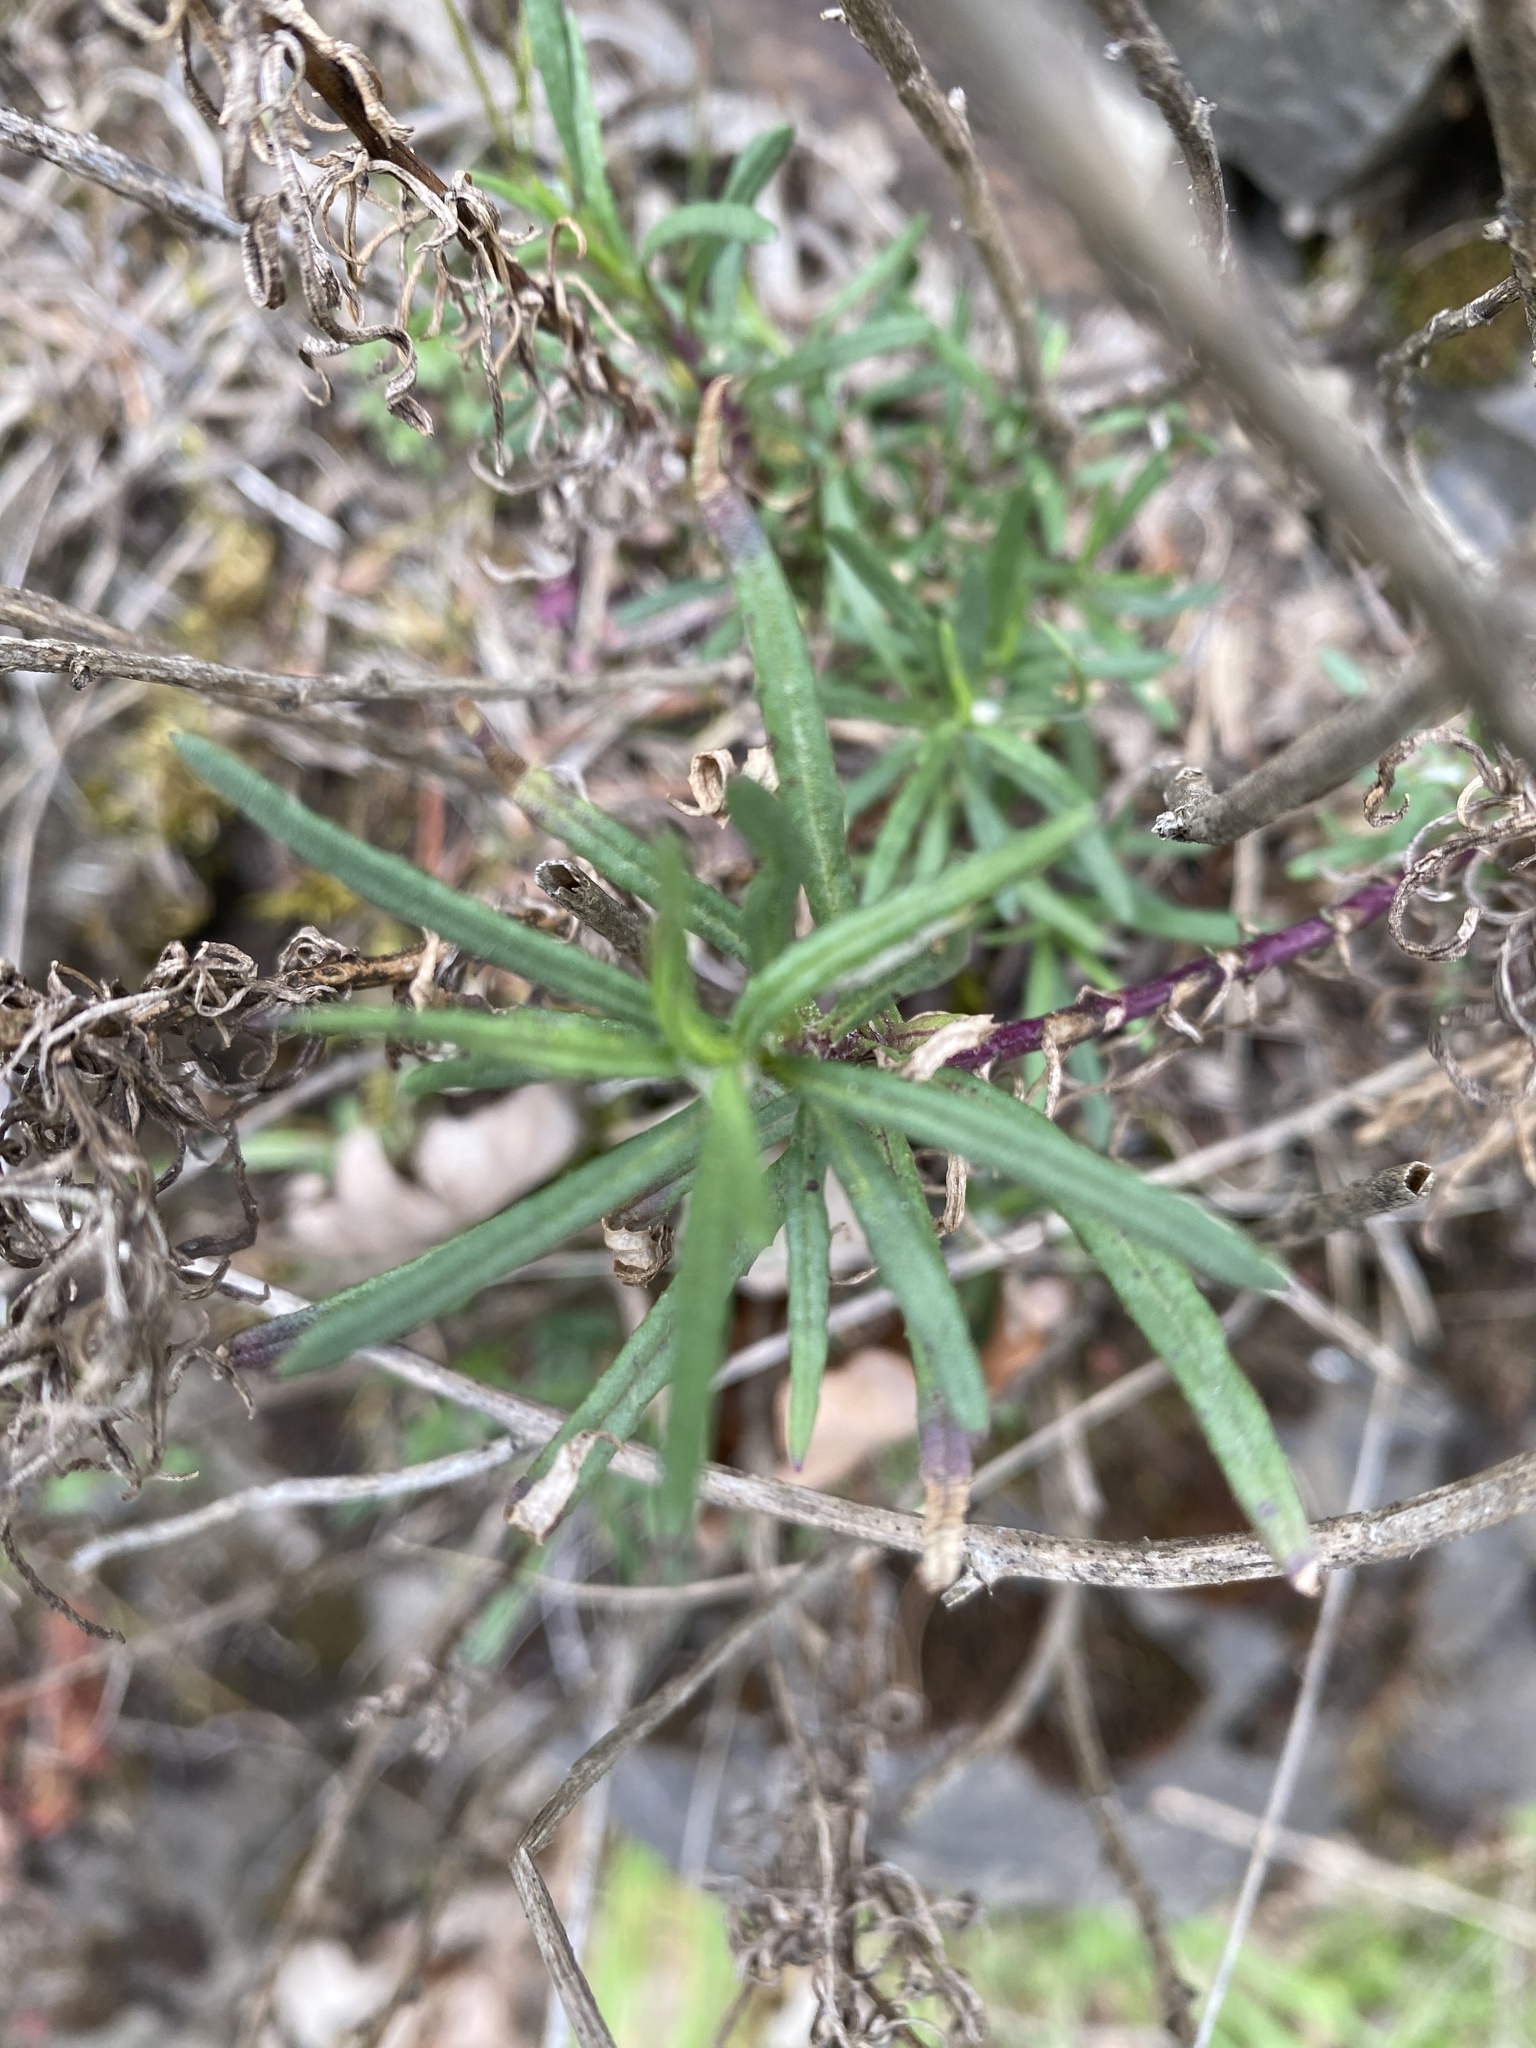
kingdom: Plantae
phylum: Tracheophyta
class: Magnoliopsida
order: Asterales
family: Asteraceae
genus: Senecio
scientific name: Senecio inaequidens
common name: Narrow-leaved ragwort
